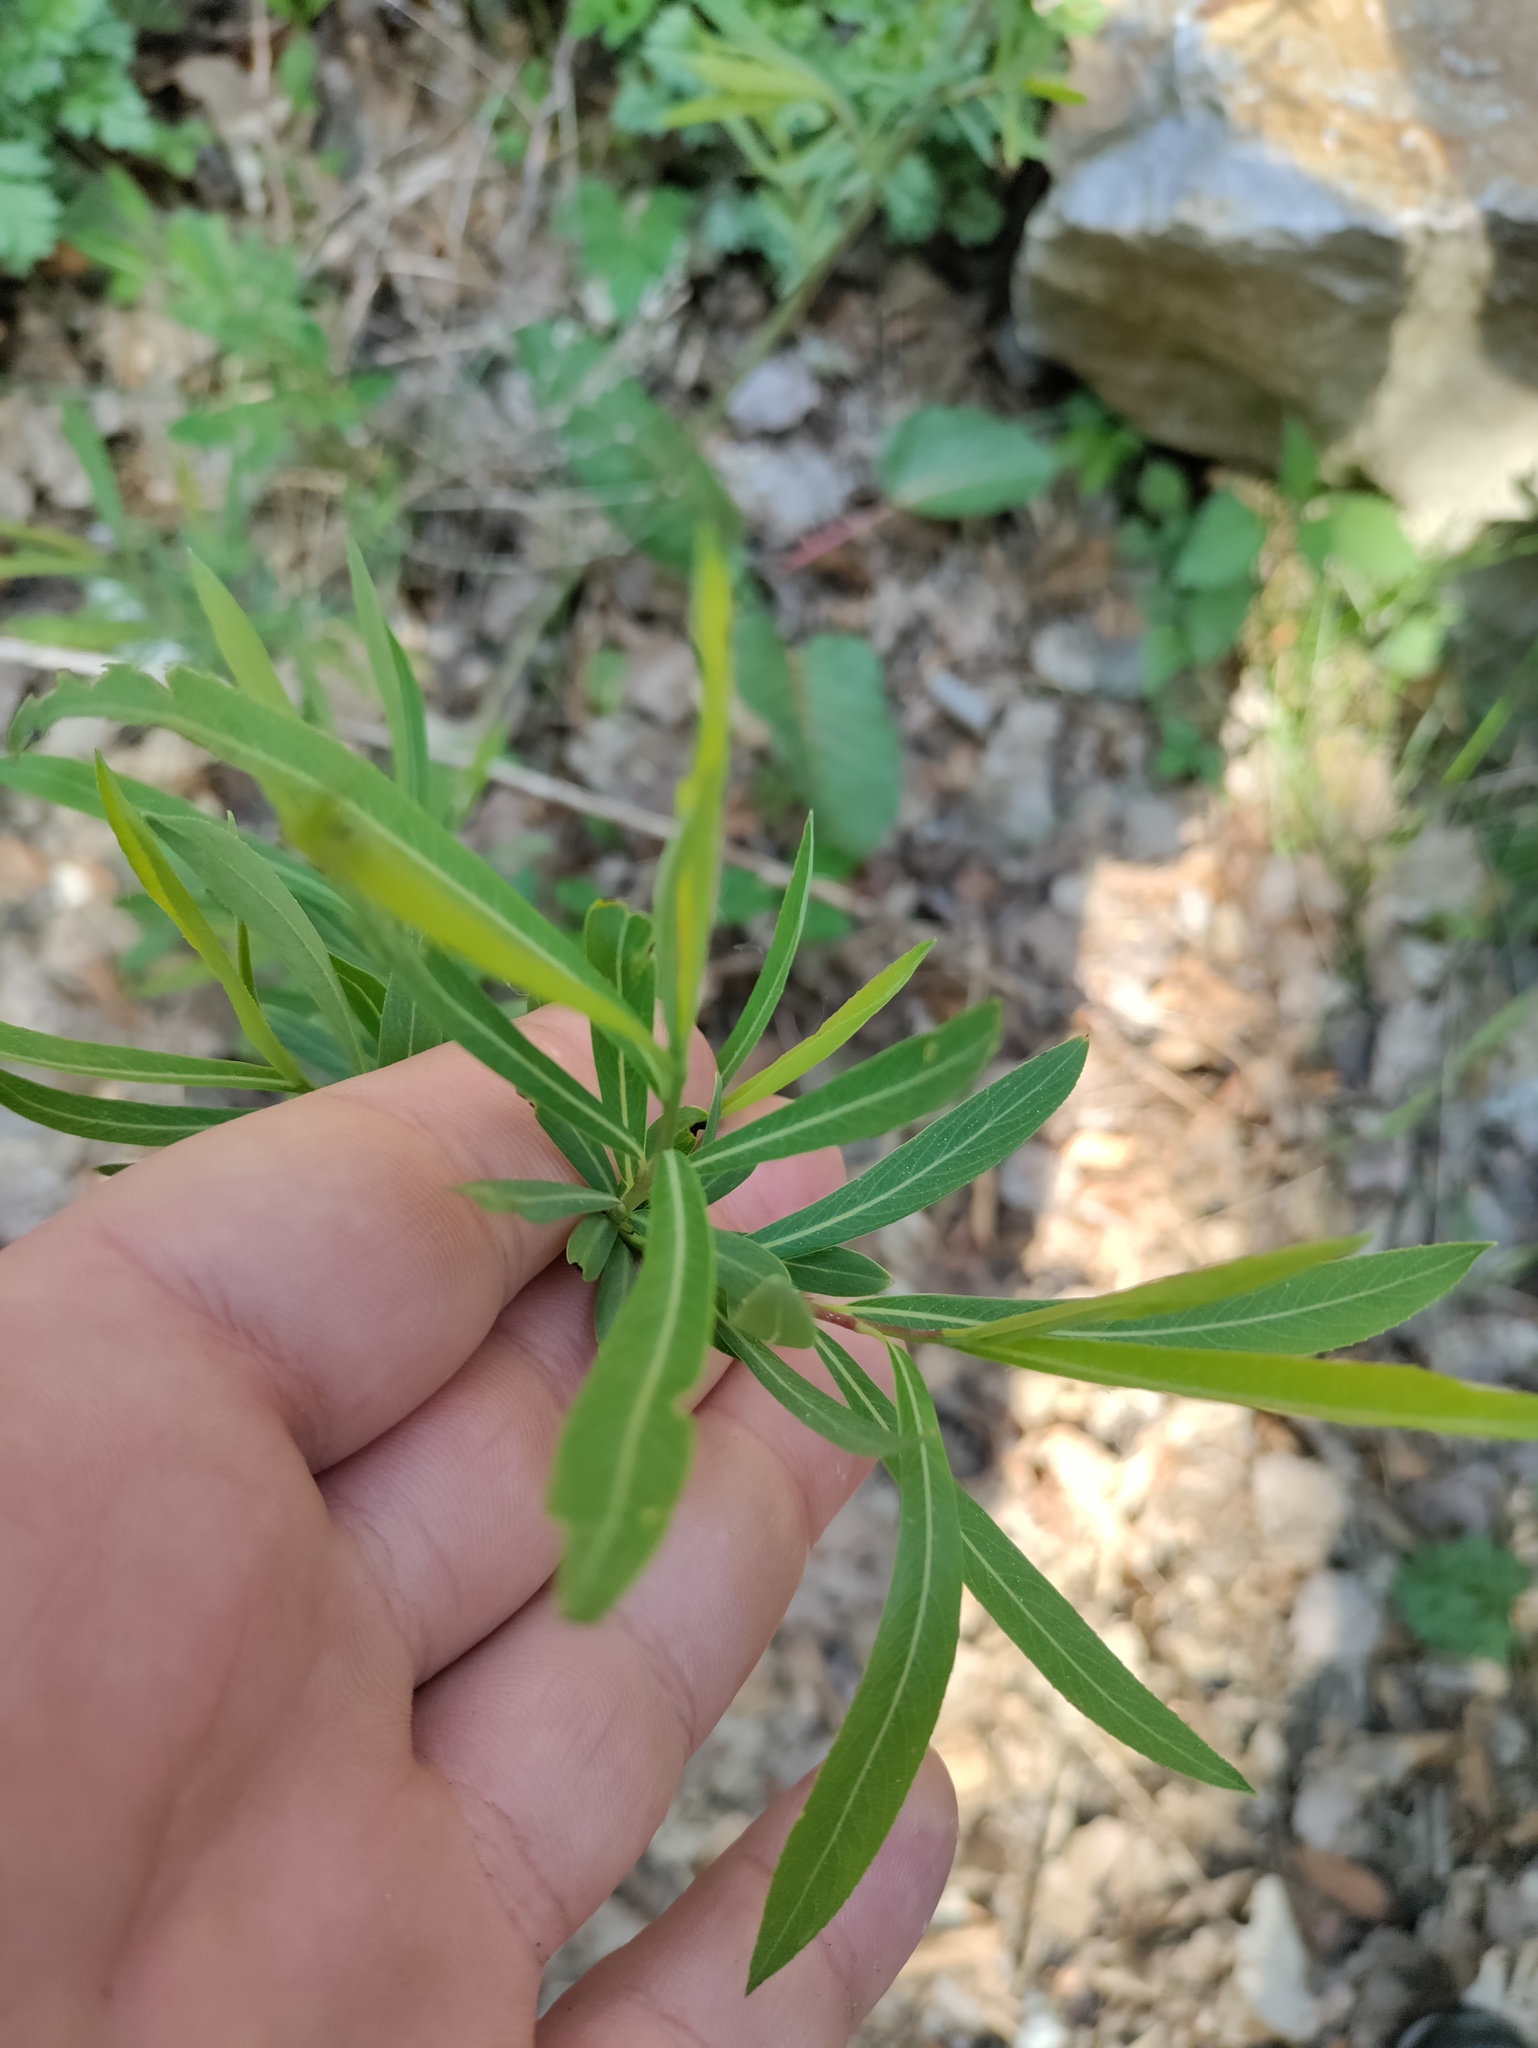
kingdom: Plantae
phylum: Tracheophyta
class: Magnoliopsida
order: Malpighiales
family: Salicaceae
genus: Salix
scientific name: Salix purpurea
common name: Purple willow
